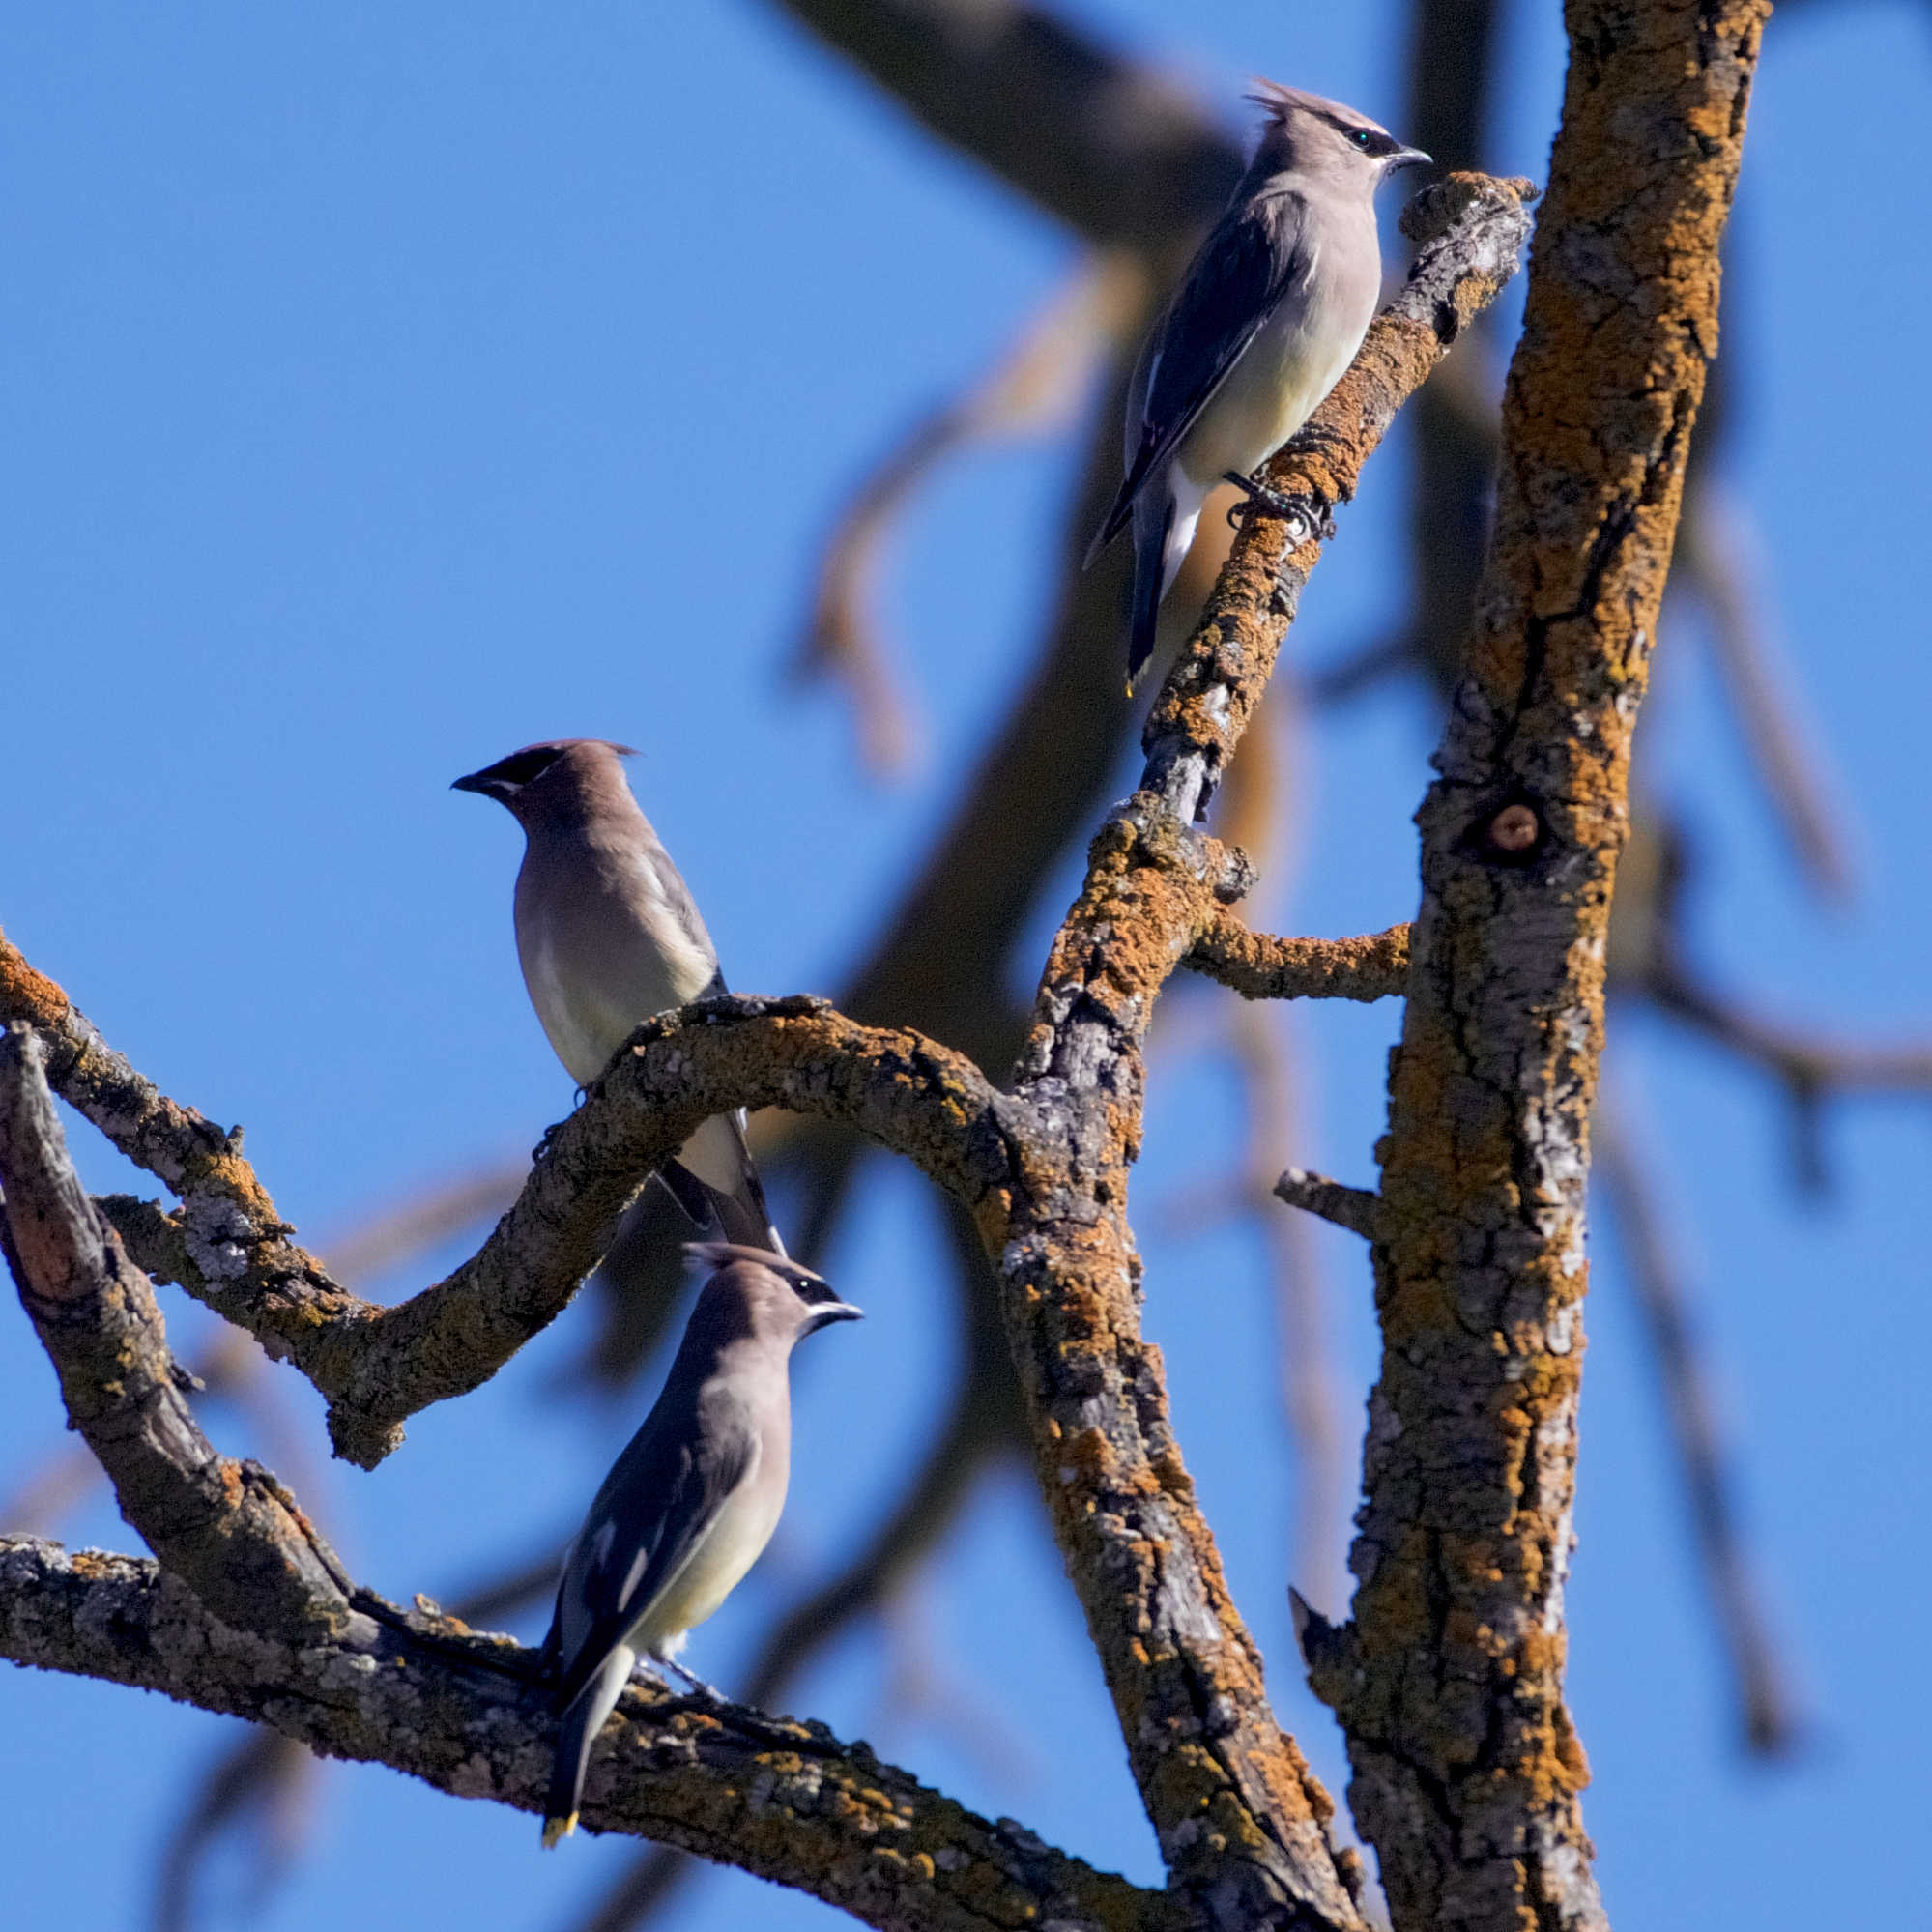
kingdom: Animalia
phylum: Chordata
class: Aves
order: Passeriformes
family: Bombycillidae
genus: Bombycilla
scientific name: Bombycilla cedrorum
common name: Cedar waxwing
